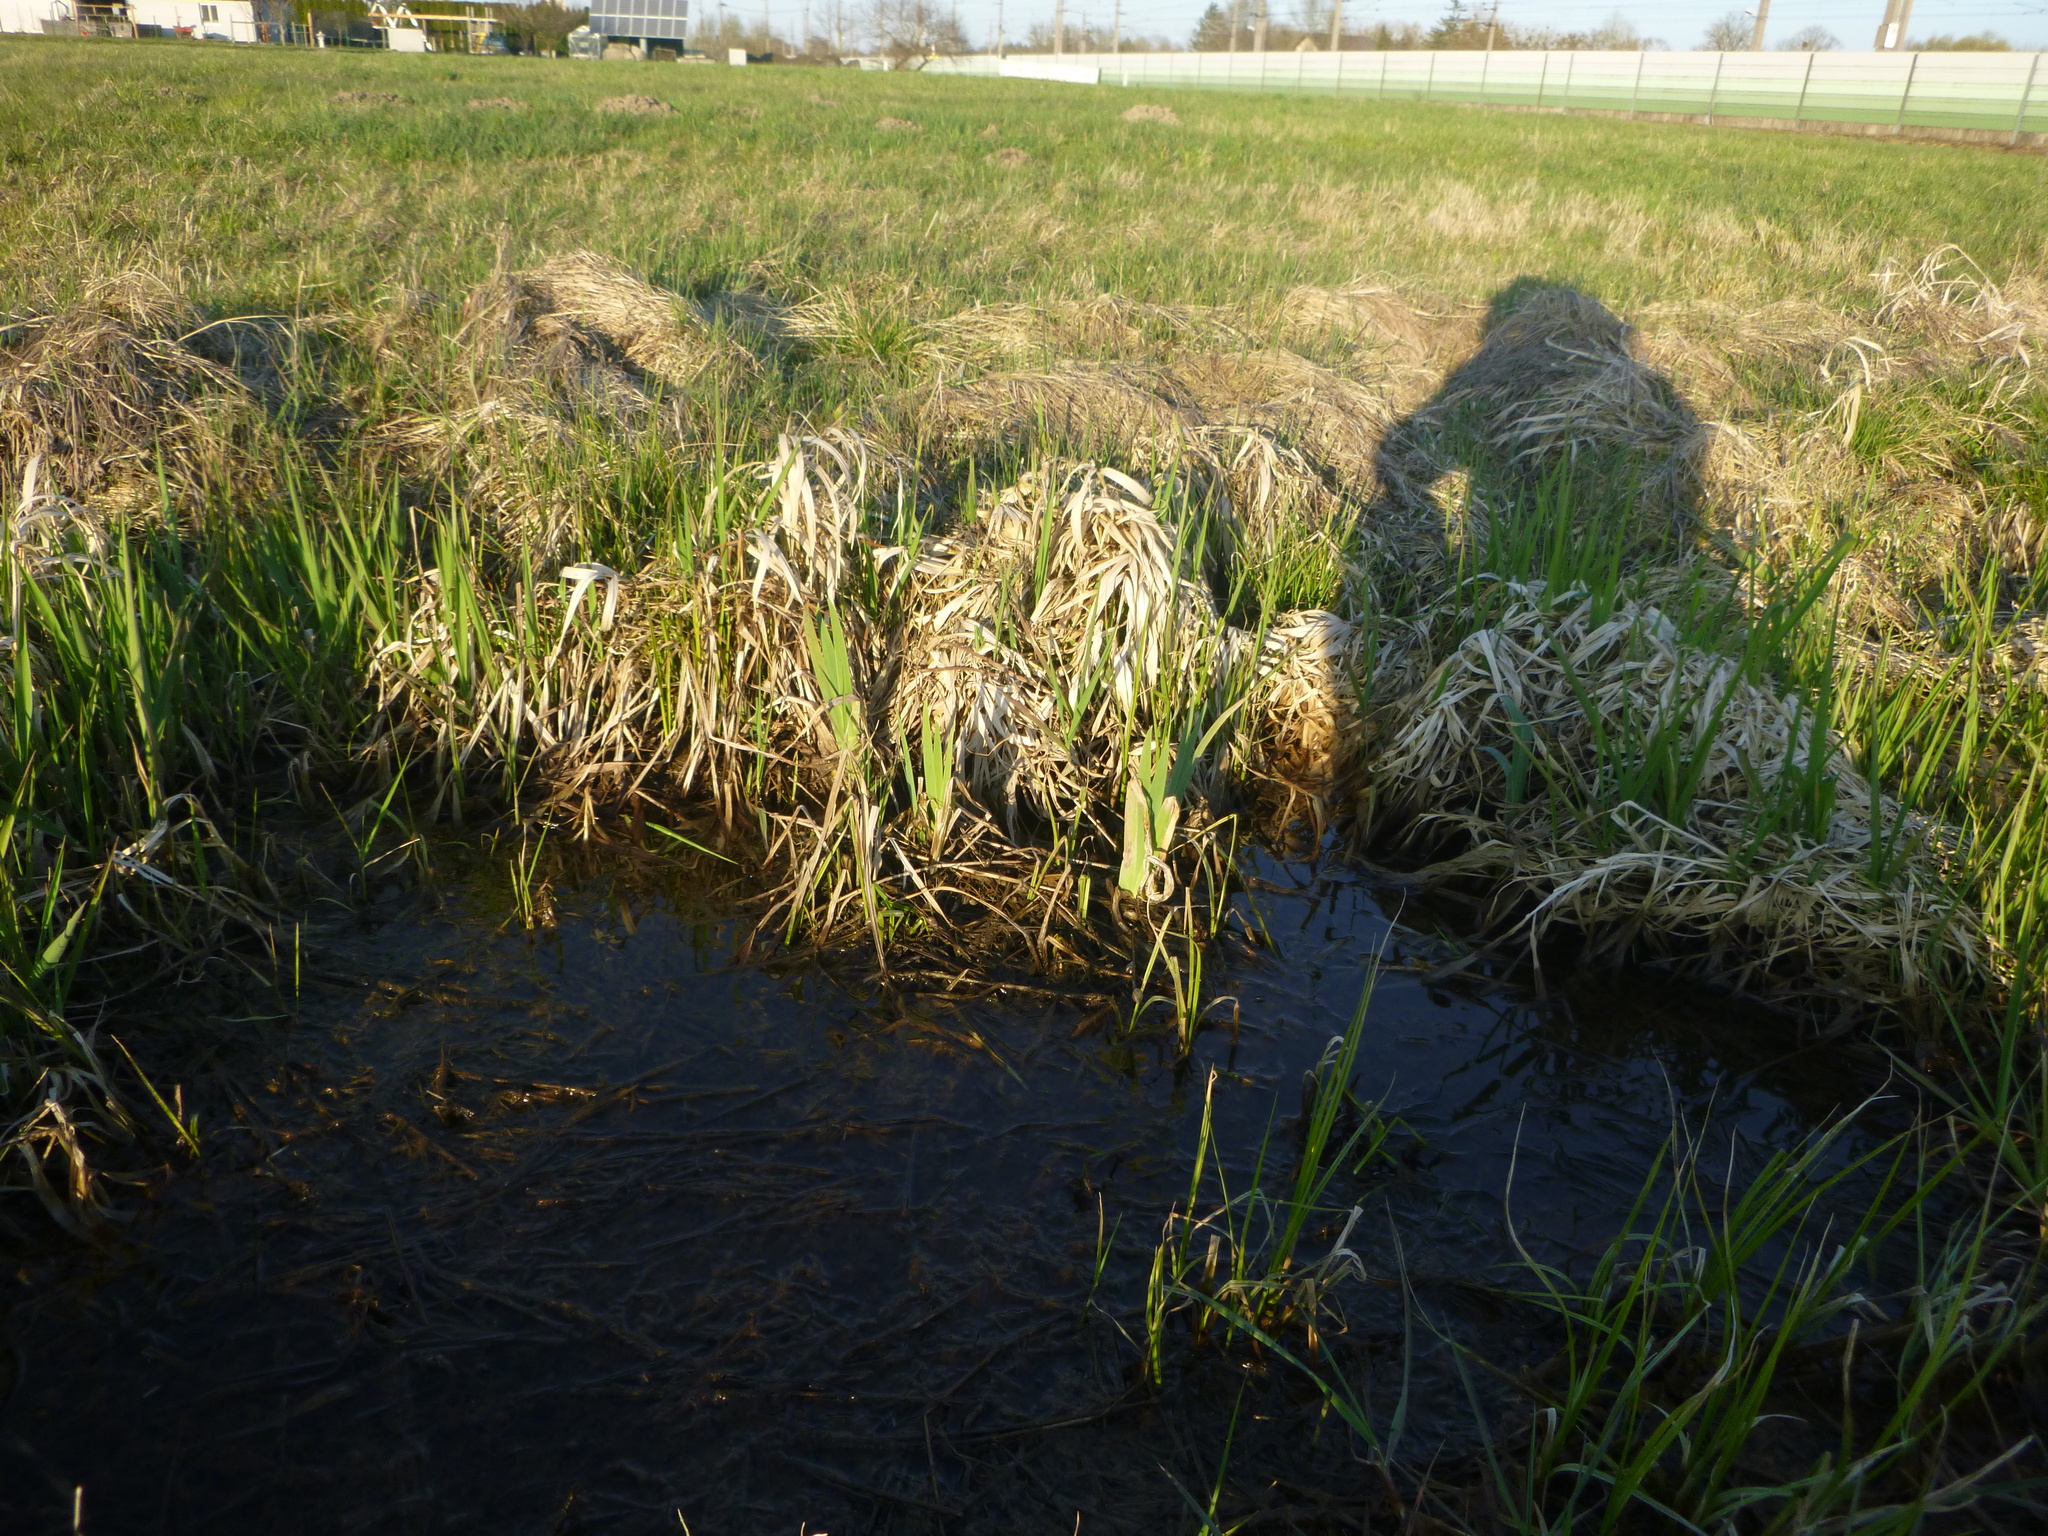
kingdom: Plantae
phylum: Tracheophyta
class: Liliopsida
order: Asparagales
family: Iridaceae
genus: Iris
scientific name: Iris pseudacorus
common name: Yellow flag
